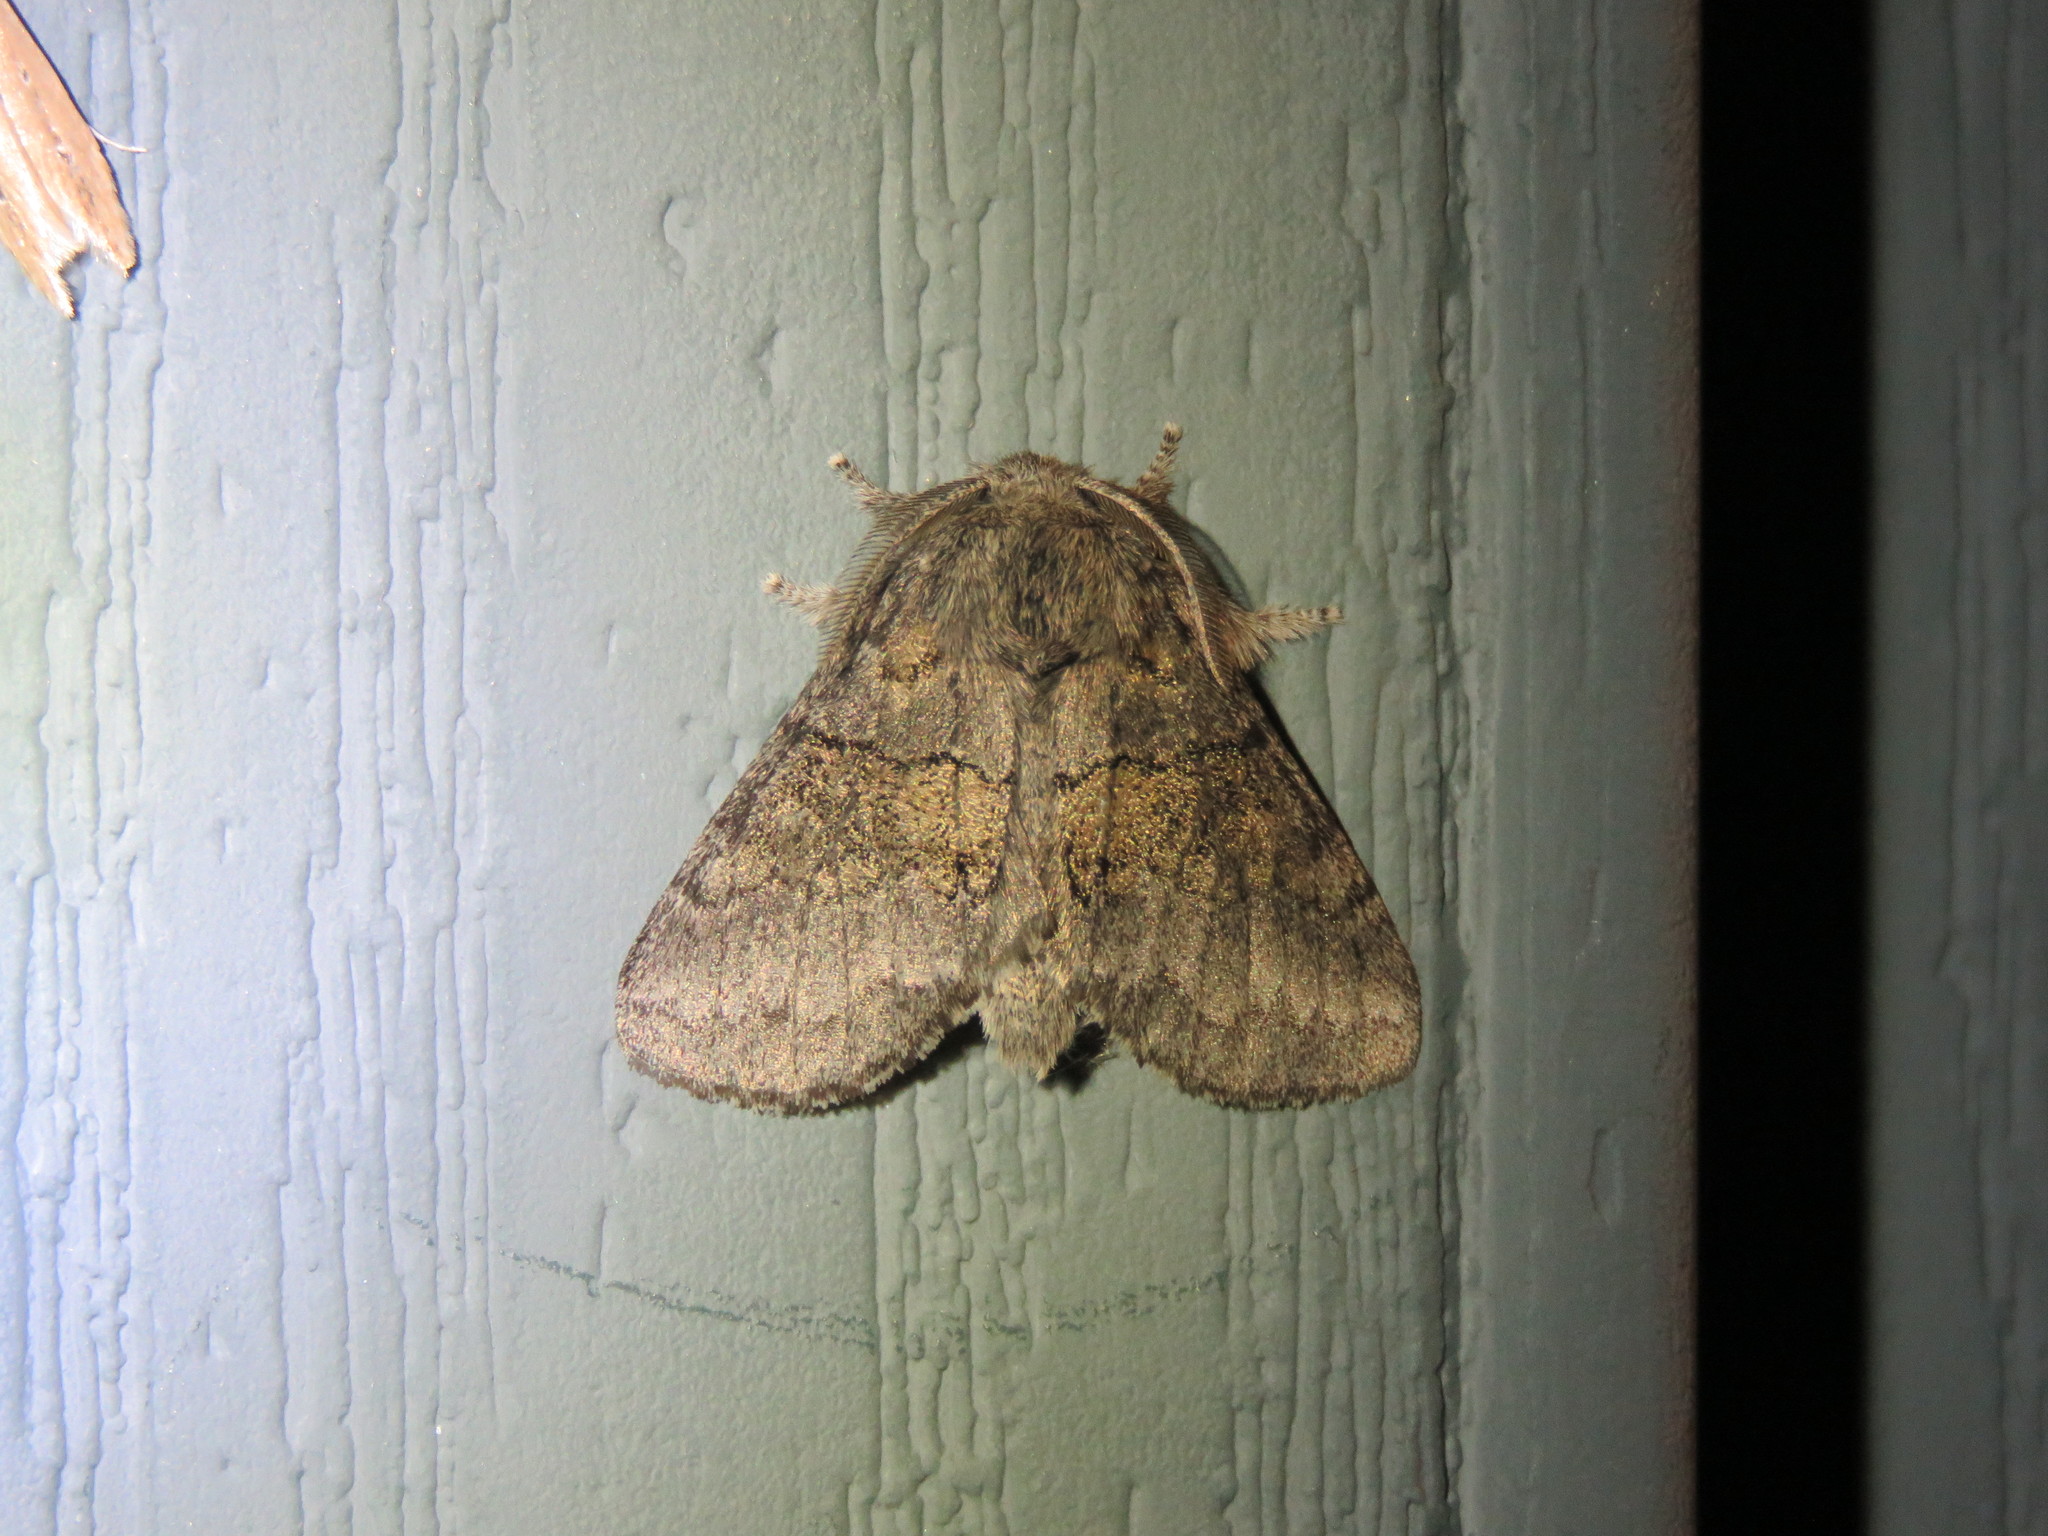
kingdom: Animalia
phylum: Arthropoda
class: Insecta
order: Lepidoptera
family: Notodontidae
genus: Gluphisia
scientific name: Gluphisia septentrionis
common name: Common gluphisia
